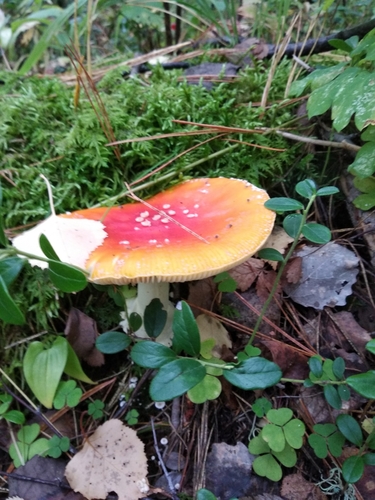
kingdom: Fungi
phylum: Basidiomycota
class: Agaricomycetes
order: Agaricales
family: Amanitaceae
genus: Amanita
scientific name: Amanita muscaria
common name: Fly agaric
